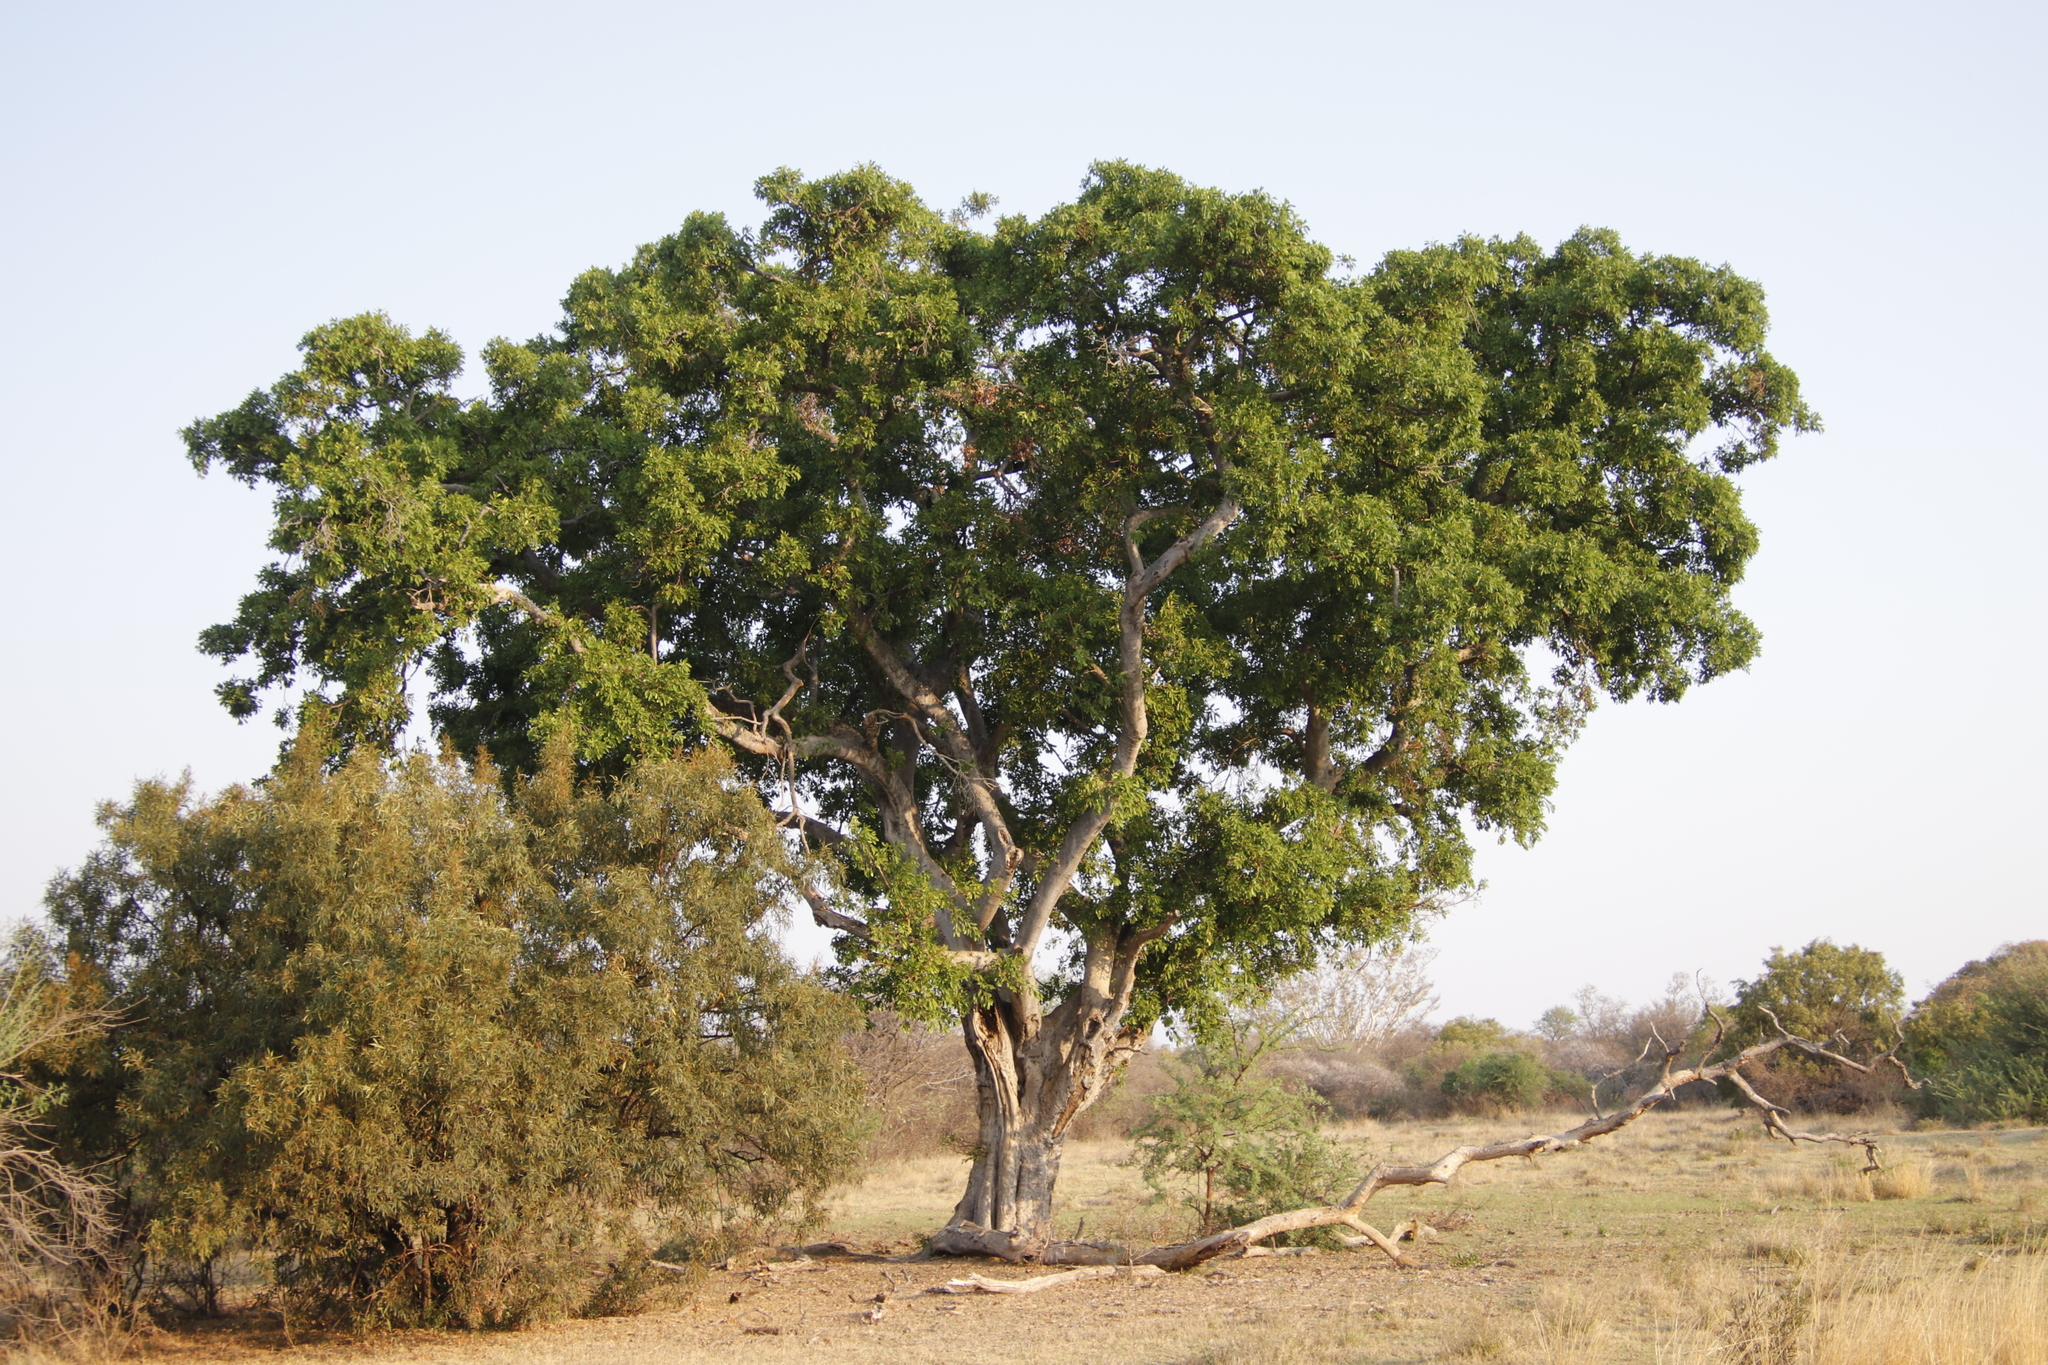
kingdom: Plantae
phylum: Tracheophyta
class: Magnoliopsida
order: Rosales
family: Moraceae
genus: Ficus
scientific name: Ficus thonningii
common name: Fig
